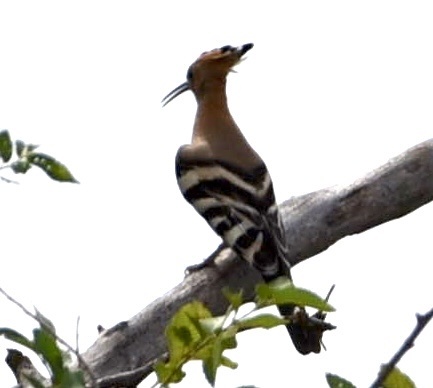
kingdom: Animalia
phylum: Chordata
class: Aves
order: Bucerotiformes
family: Upupidae
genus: Upupa
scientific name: Upupa epops
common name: Eurasian hoopoe
